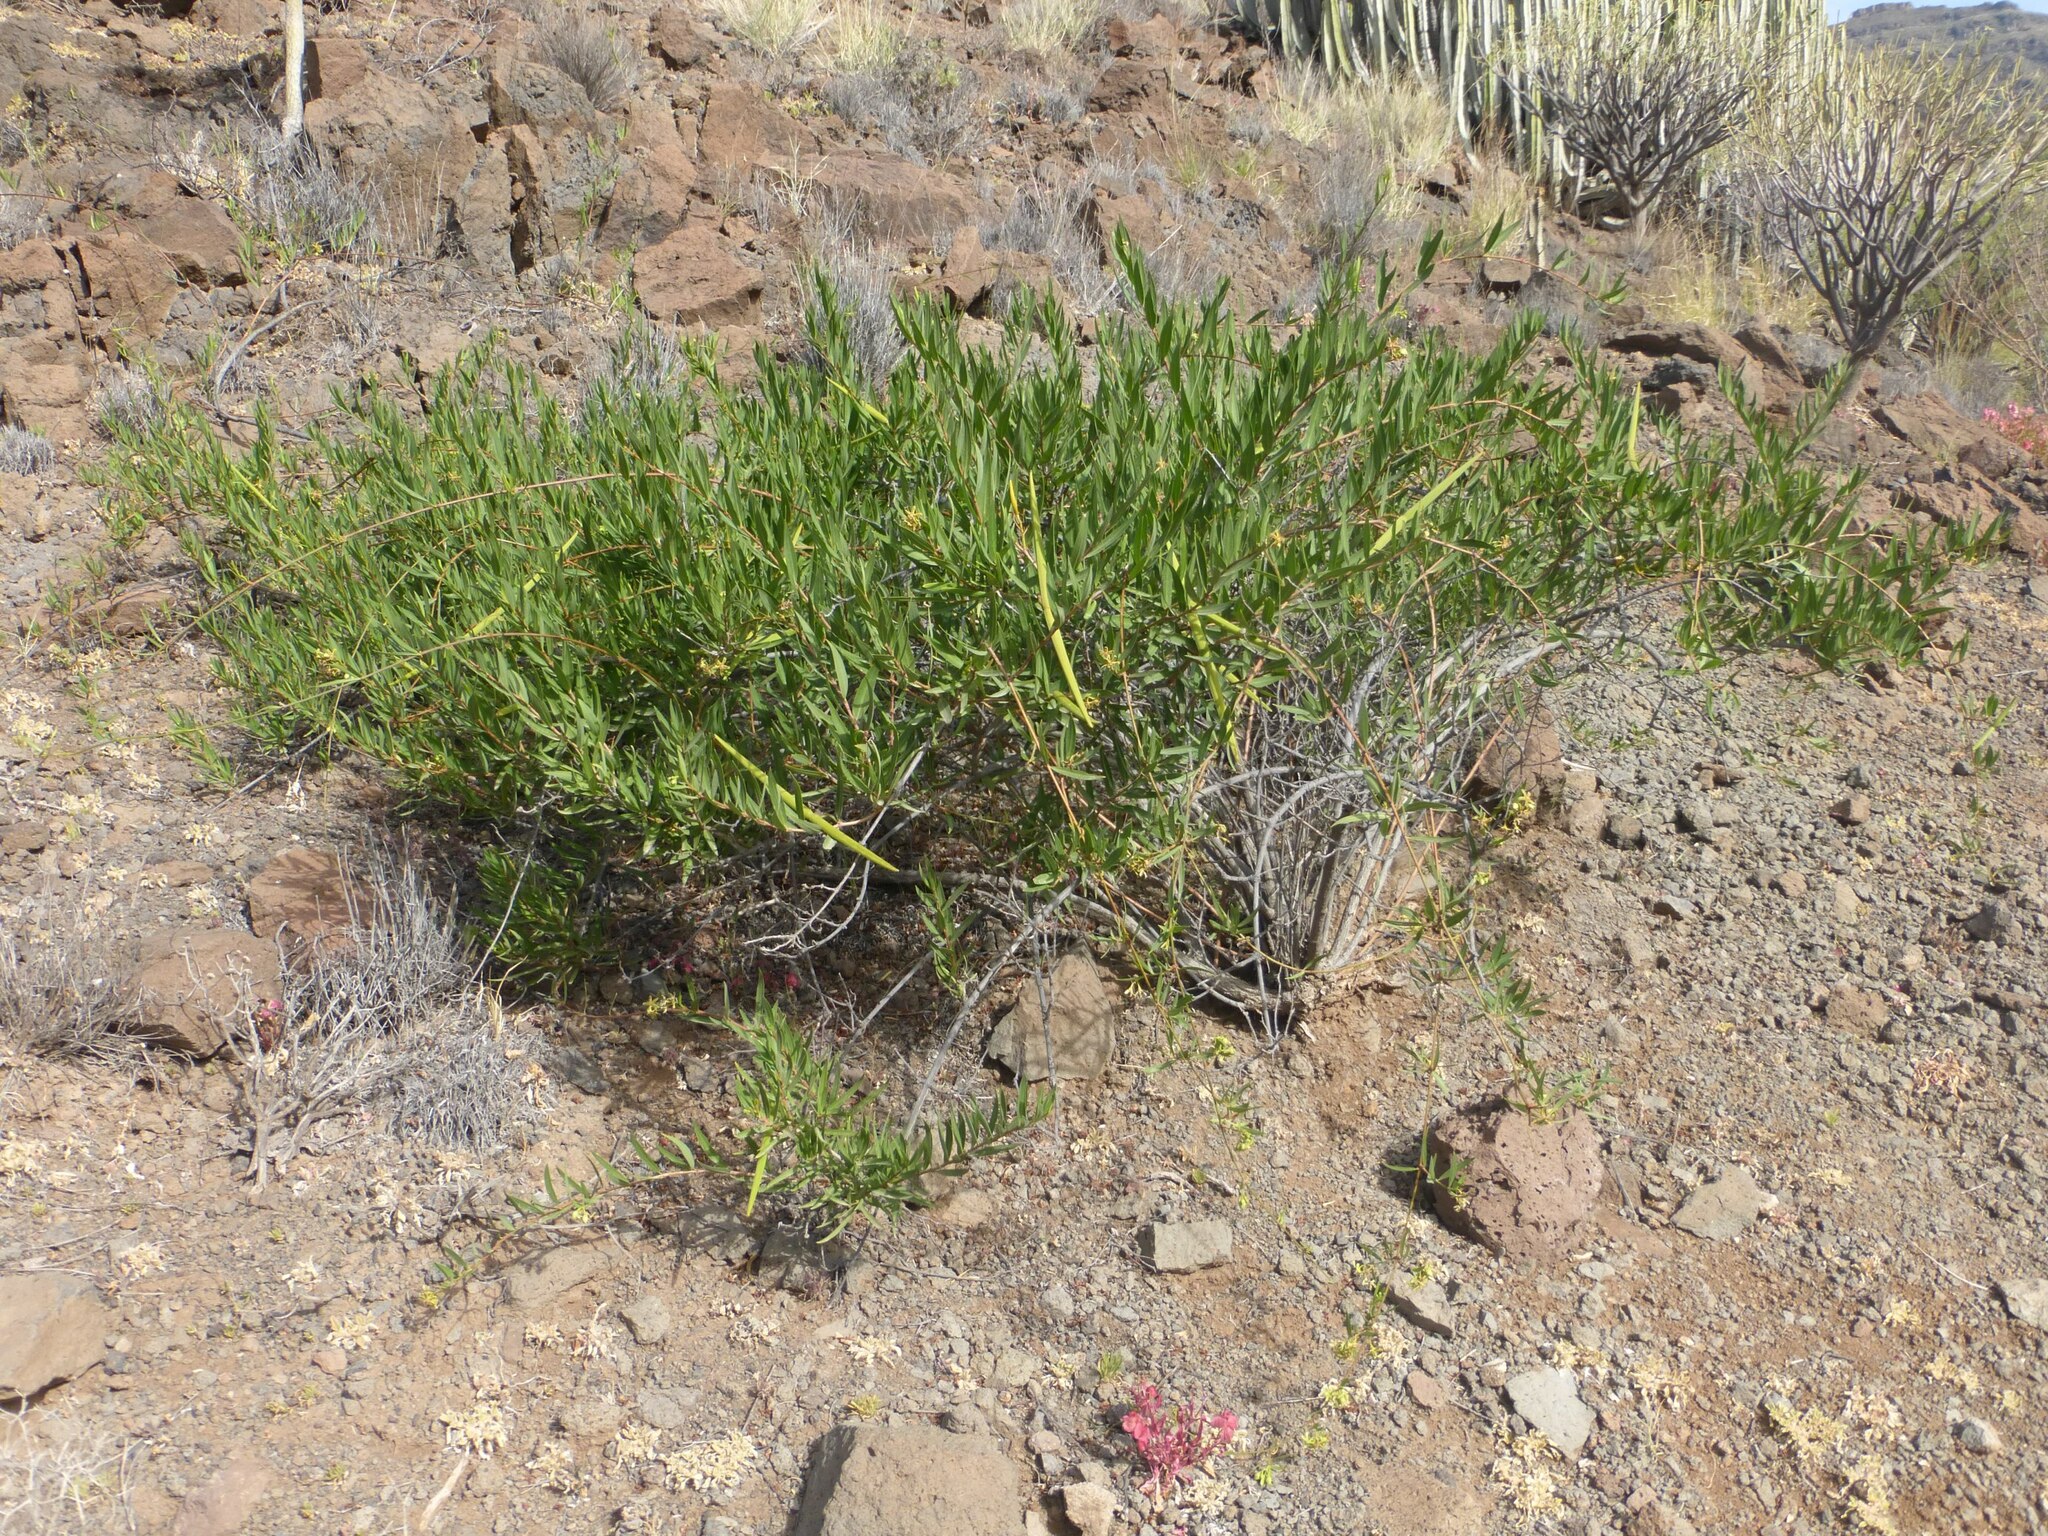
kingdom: Plantae
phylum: Tracheophyta
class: Magnoliopsida
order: Gentianales
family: Apocynaceae
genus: Periploca
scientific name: Periploca laevigata
